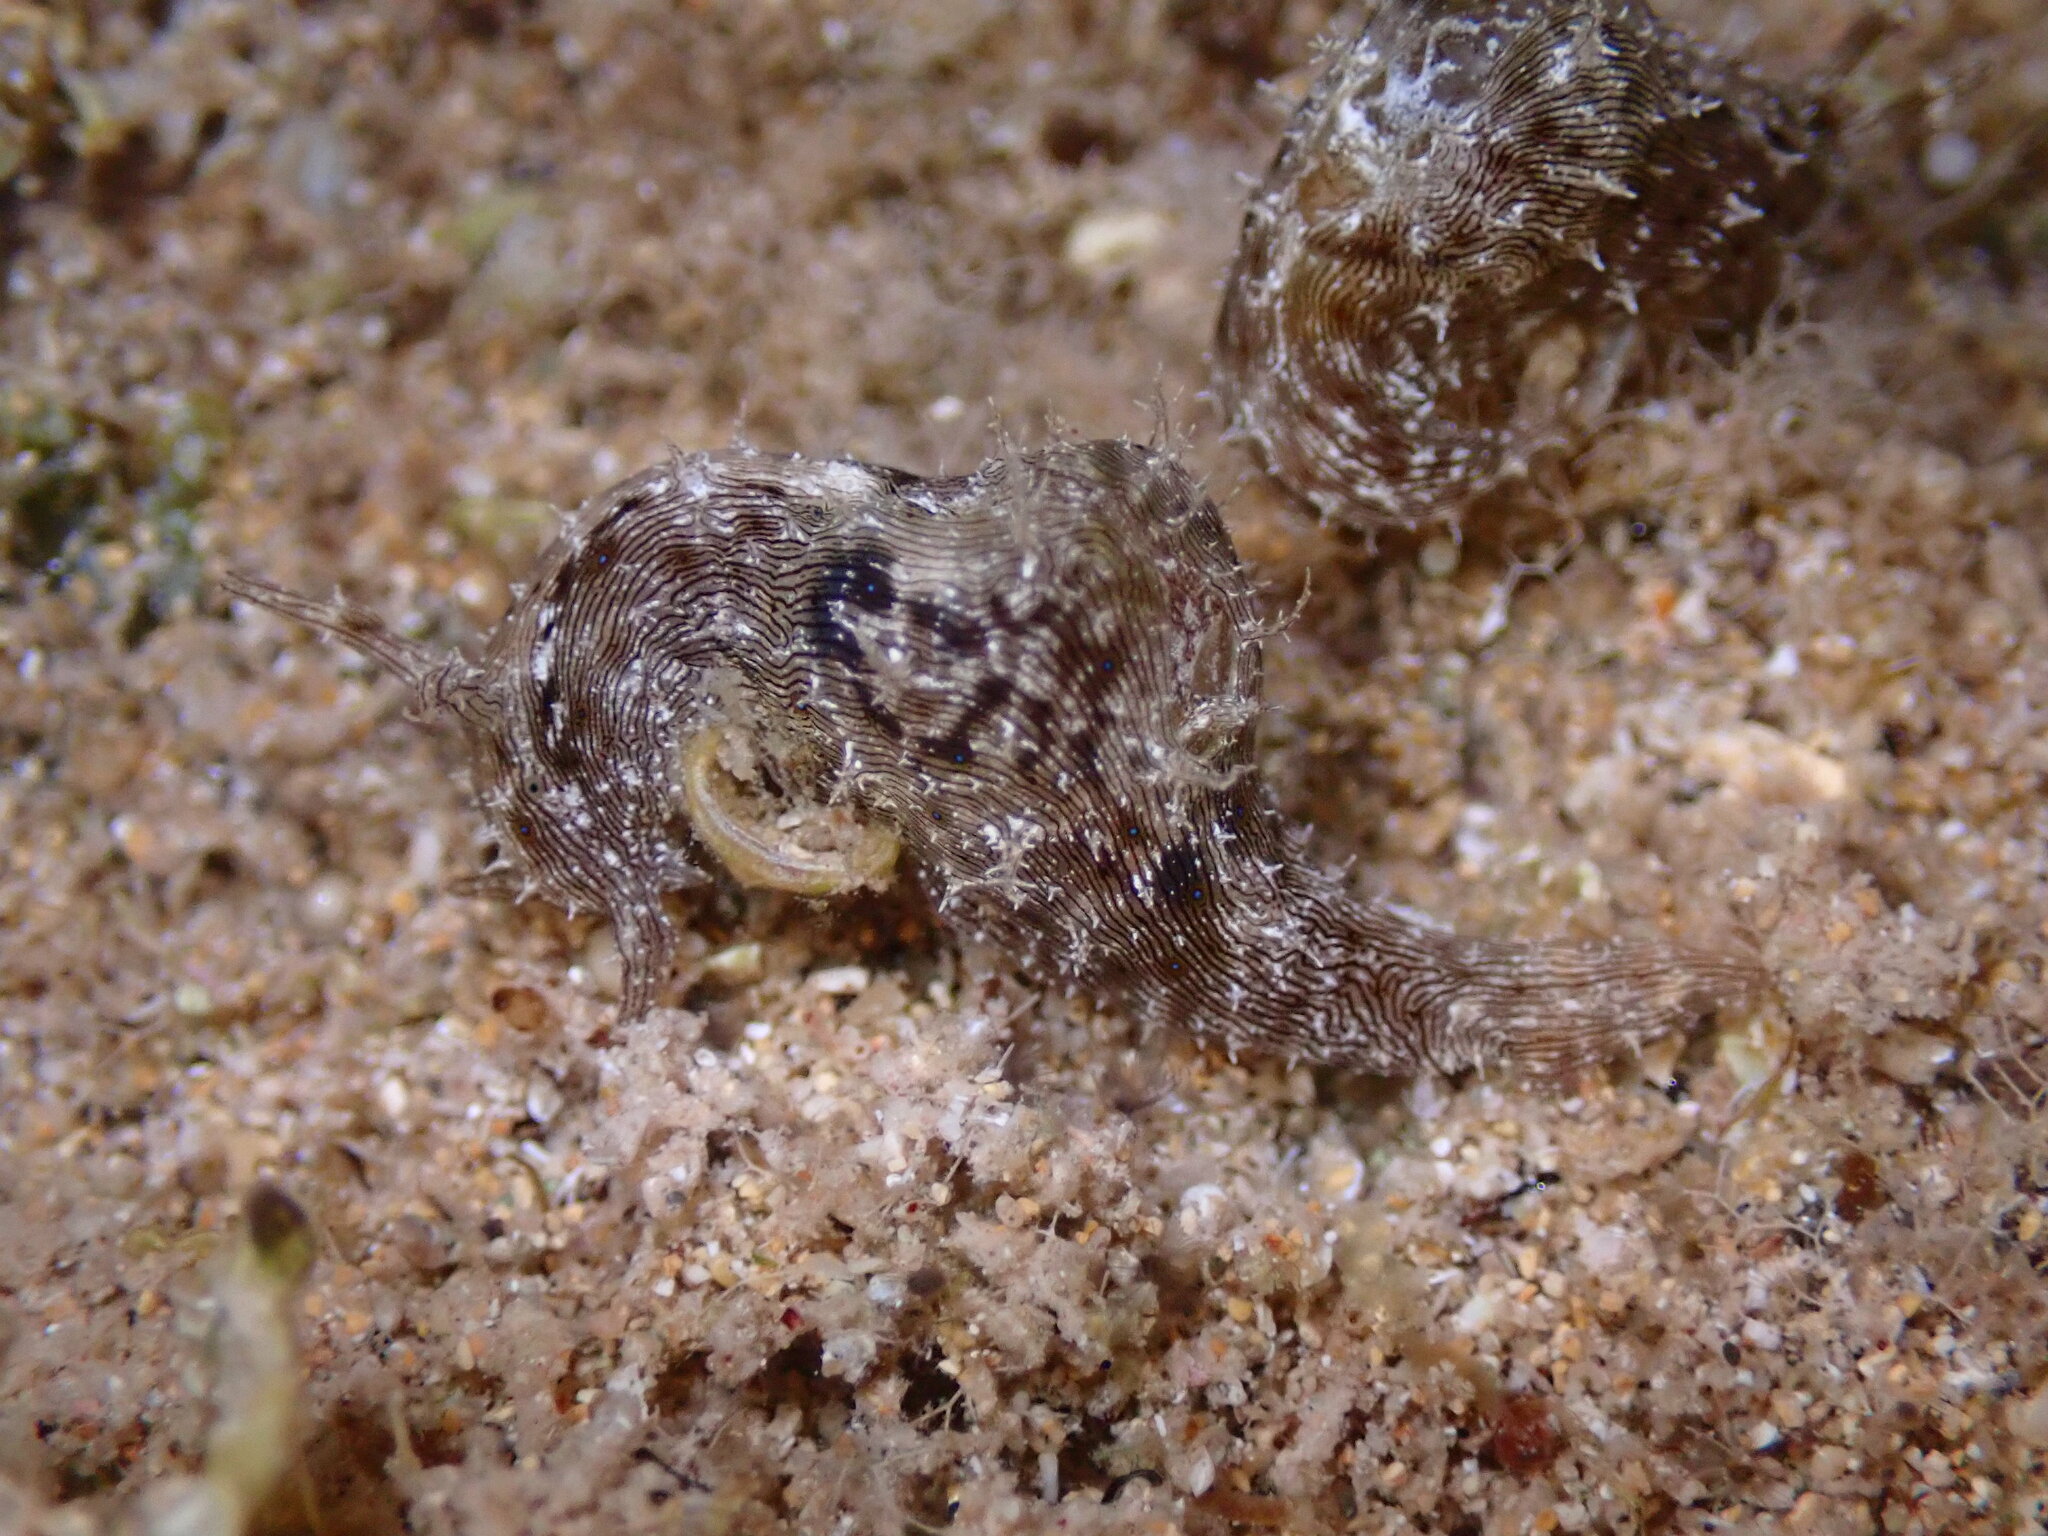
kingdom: Animalia
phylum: Mollusca
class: Gastropoda
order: Aplysiida
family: Aplysiidae
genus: Stylocheilus
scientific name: Stylocheilus striatus
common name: Striated seahare
